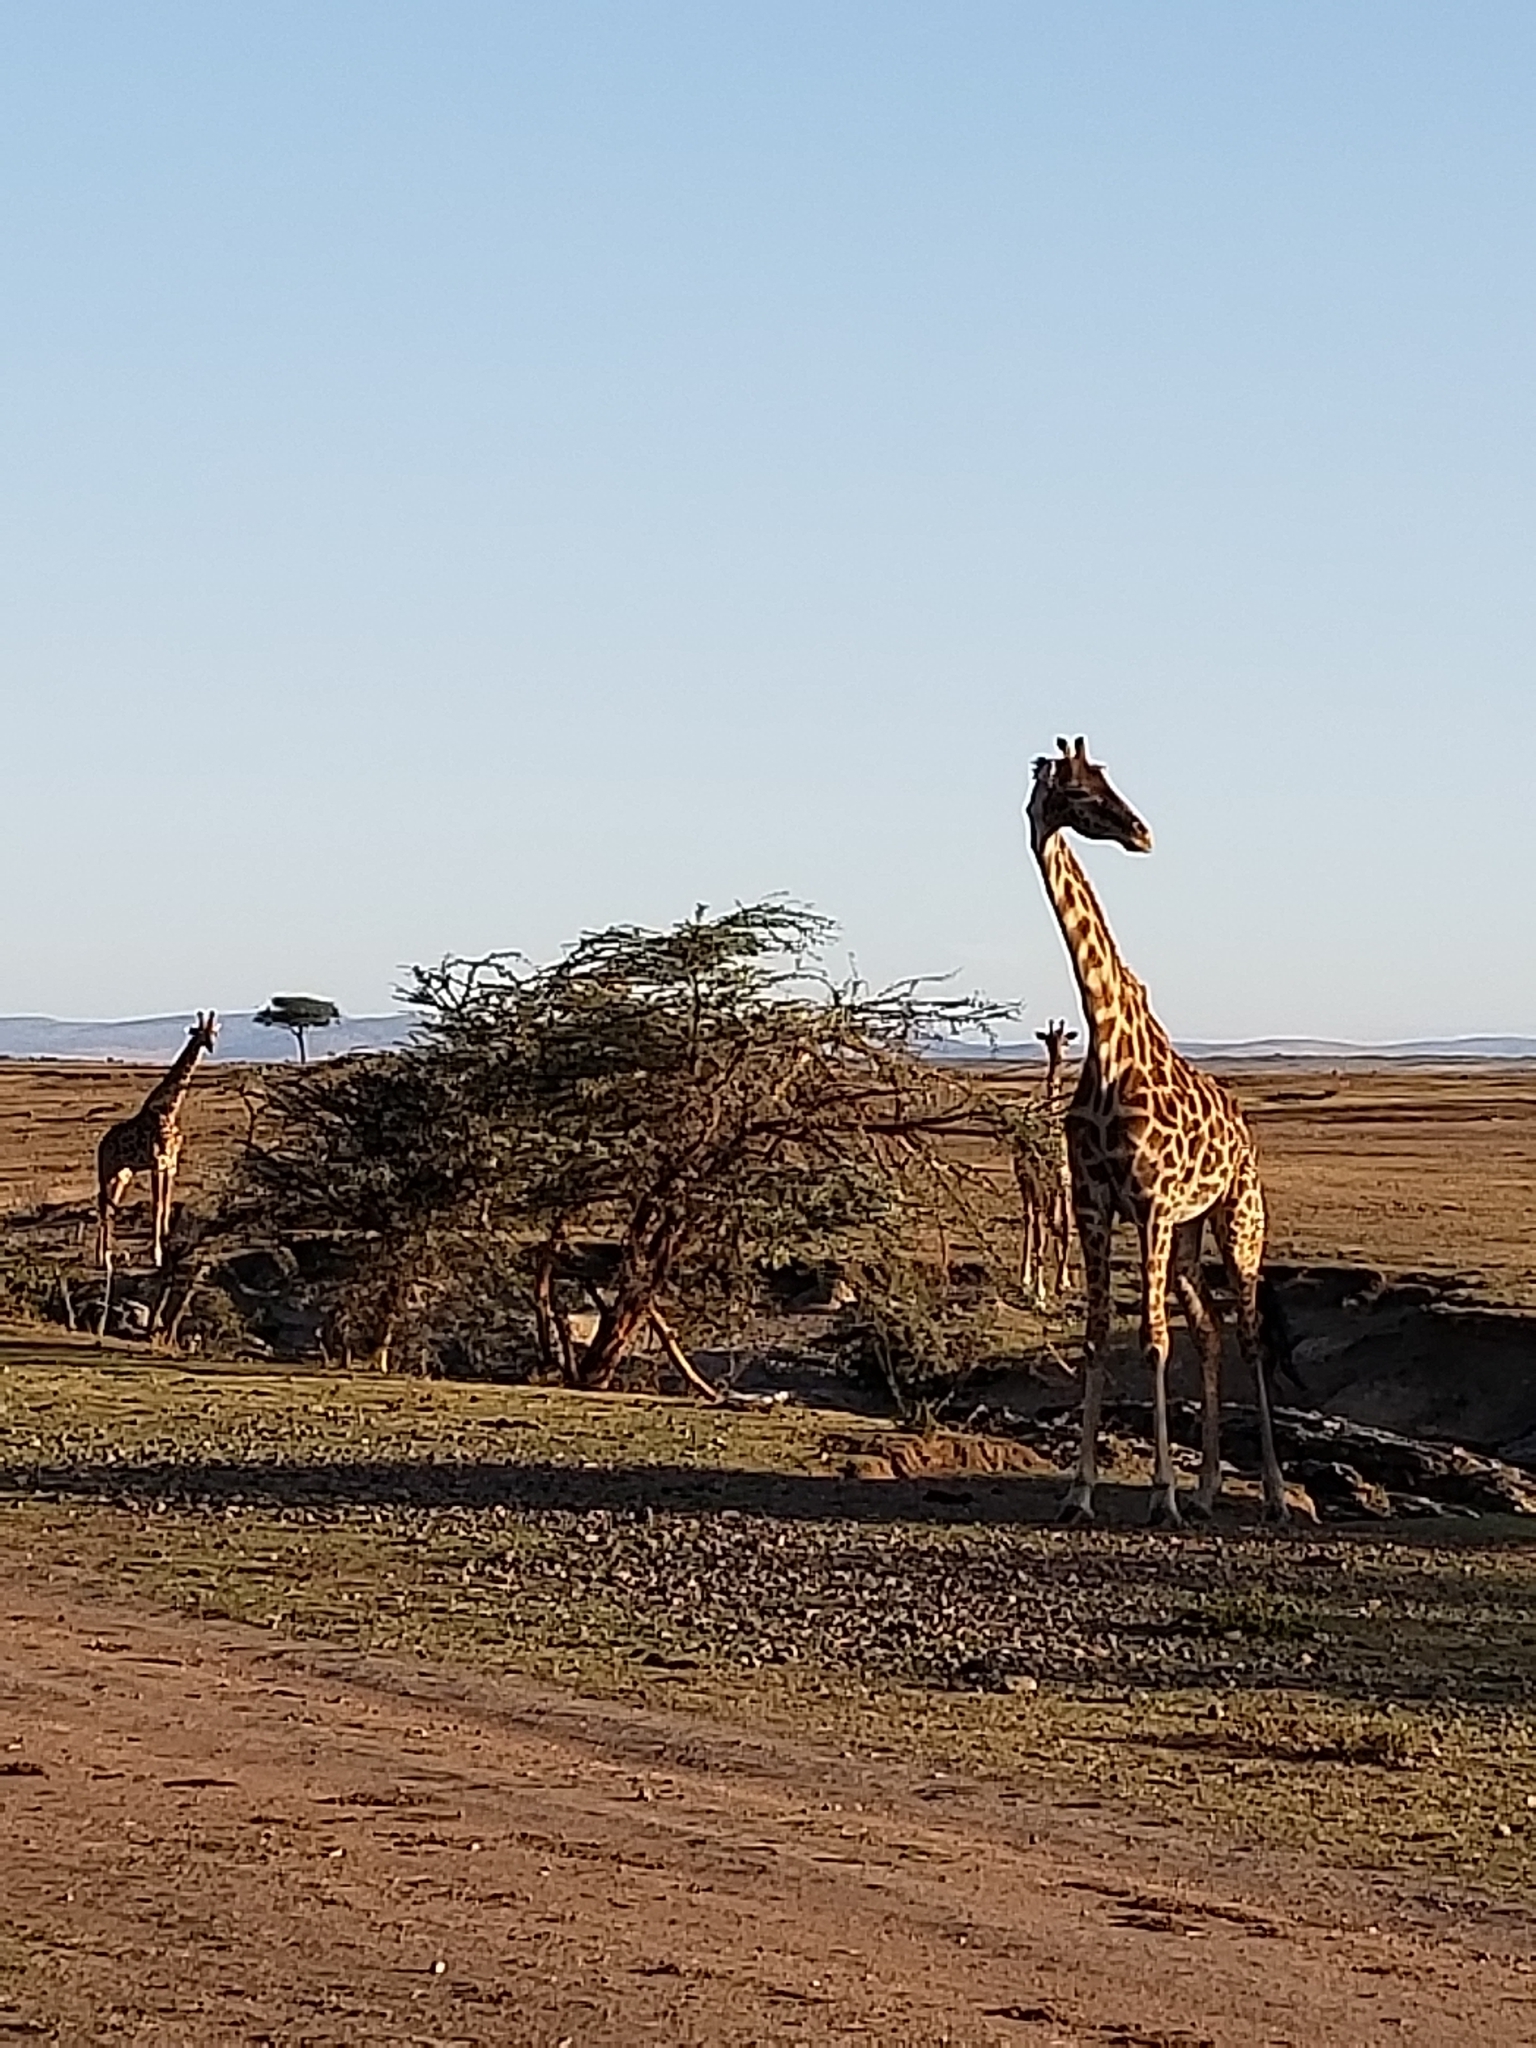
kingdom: Animalia
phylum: Chordata
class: Mammalia
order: Artiodactyla
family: Giraffidae
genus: Giraffa
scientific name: Giraffa tippelskirchi
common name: Masai giraffe
